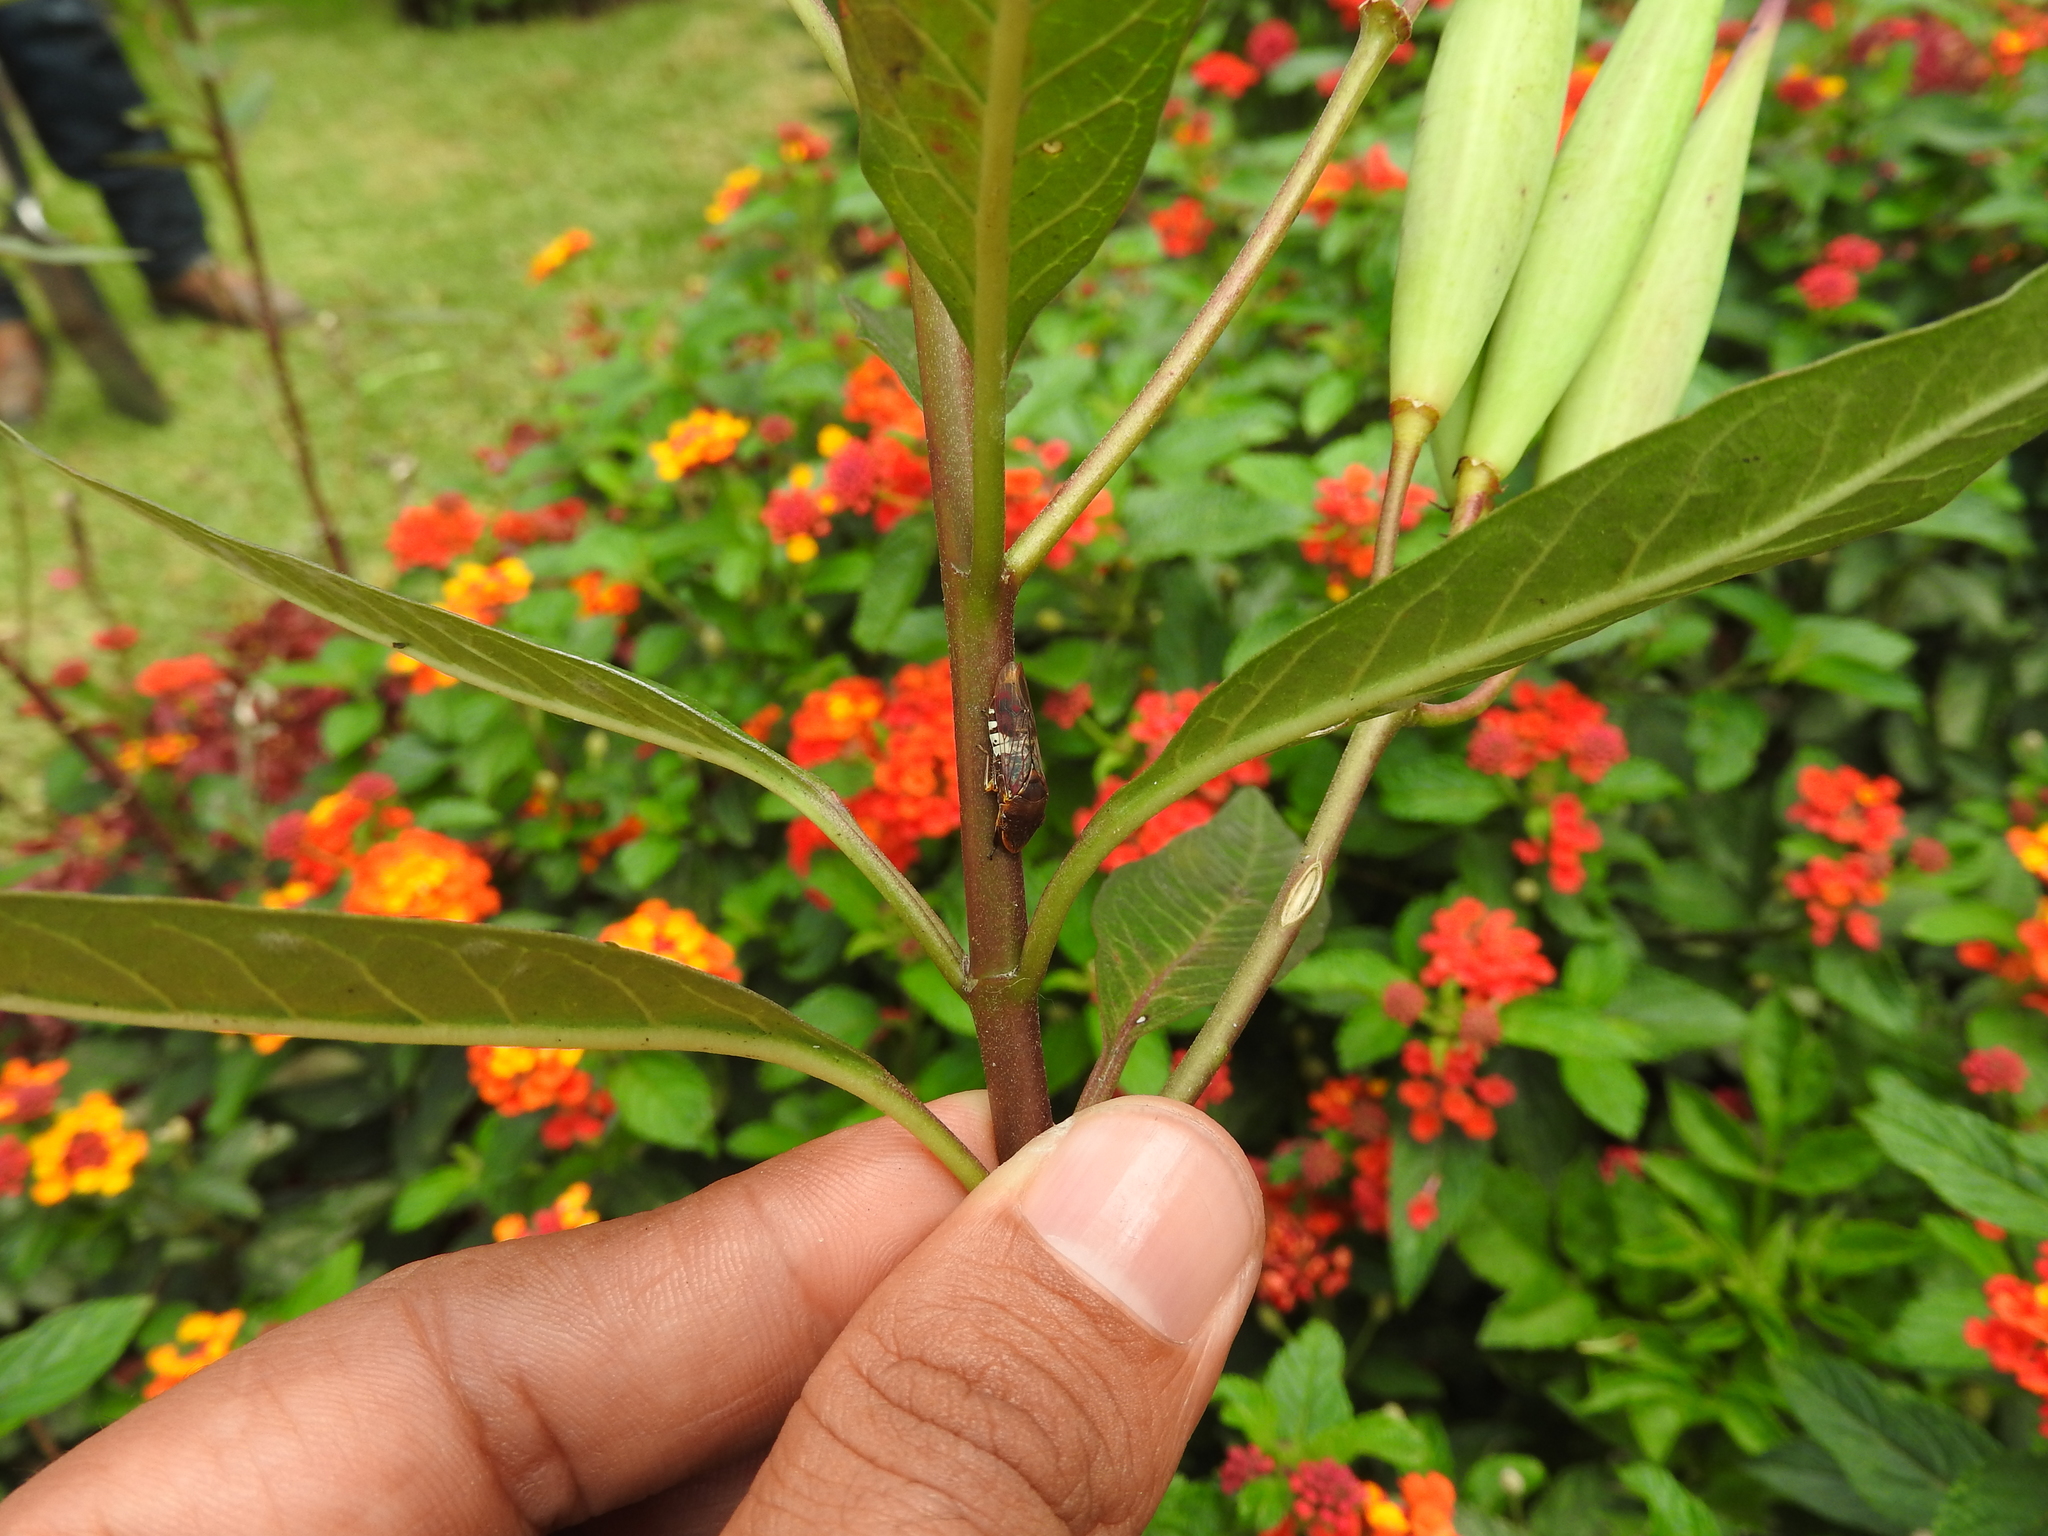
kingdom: Animalia
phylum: Arthropoda
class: Insecta
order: Hemiptera
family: Cicadellidae
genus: Homalodisca
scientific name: Homalodisca ichthyocephala
